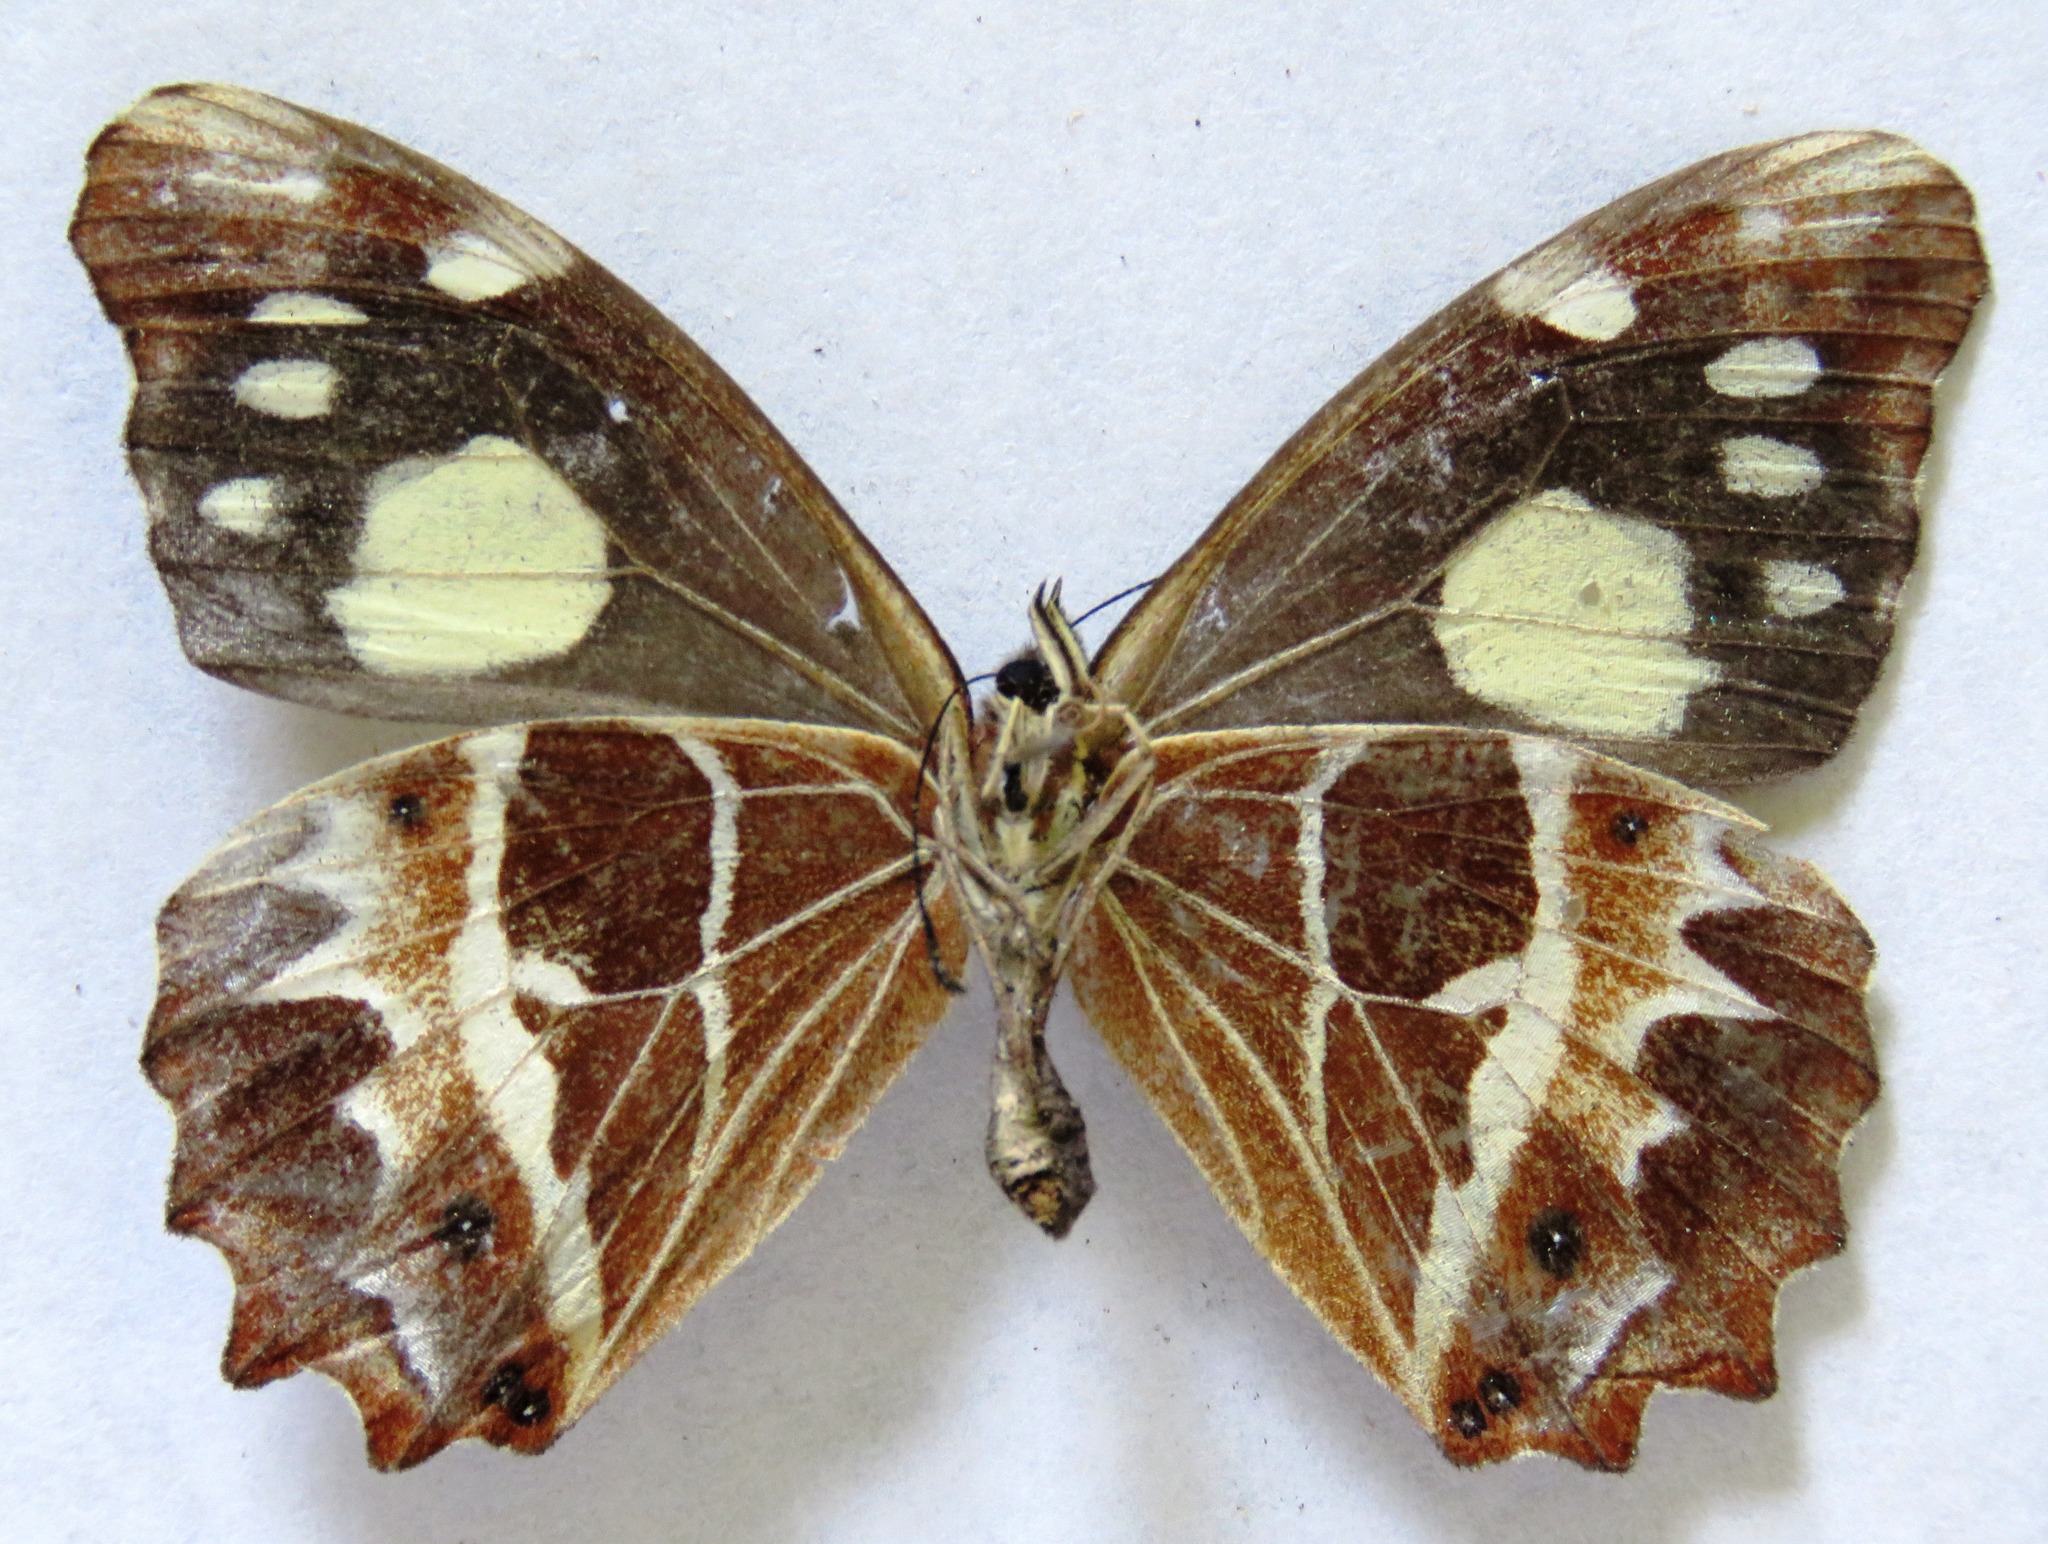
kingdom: Animalia
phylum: Arthropoda
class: Insecta
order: Lepidoptera
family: Nymphalidae
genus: Oxeoschistus
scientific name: Oxeoschistus tauropolis
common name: Starred oxeo
